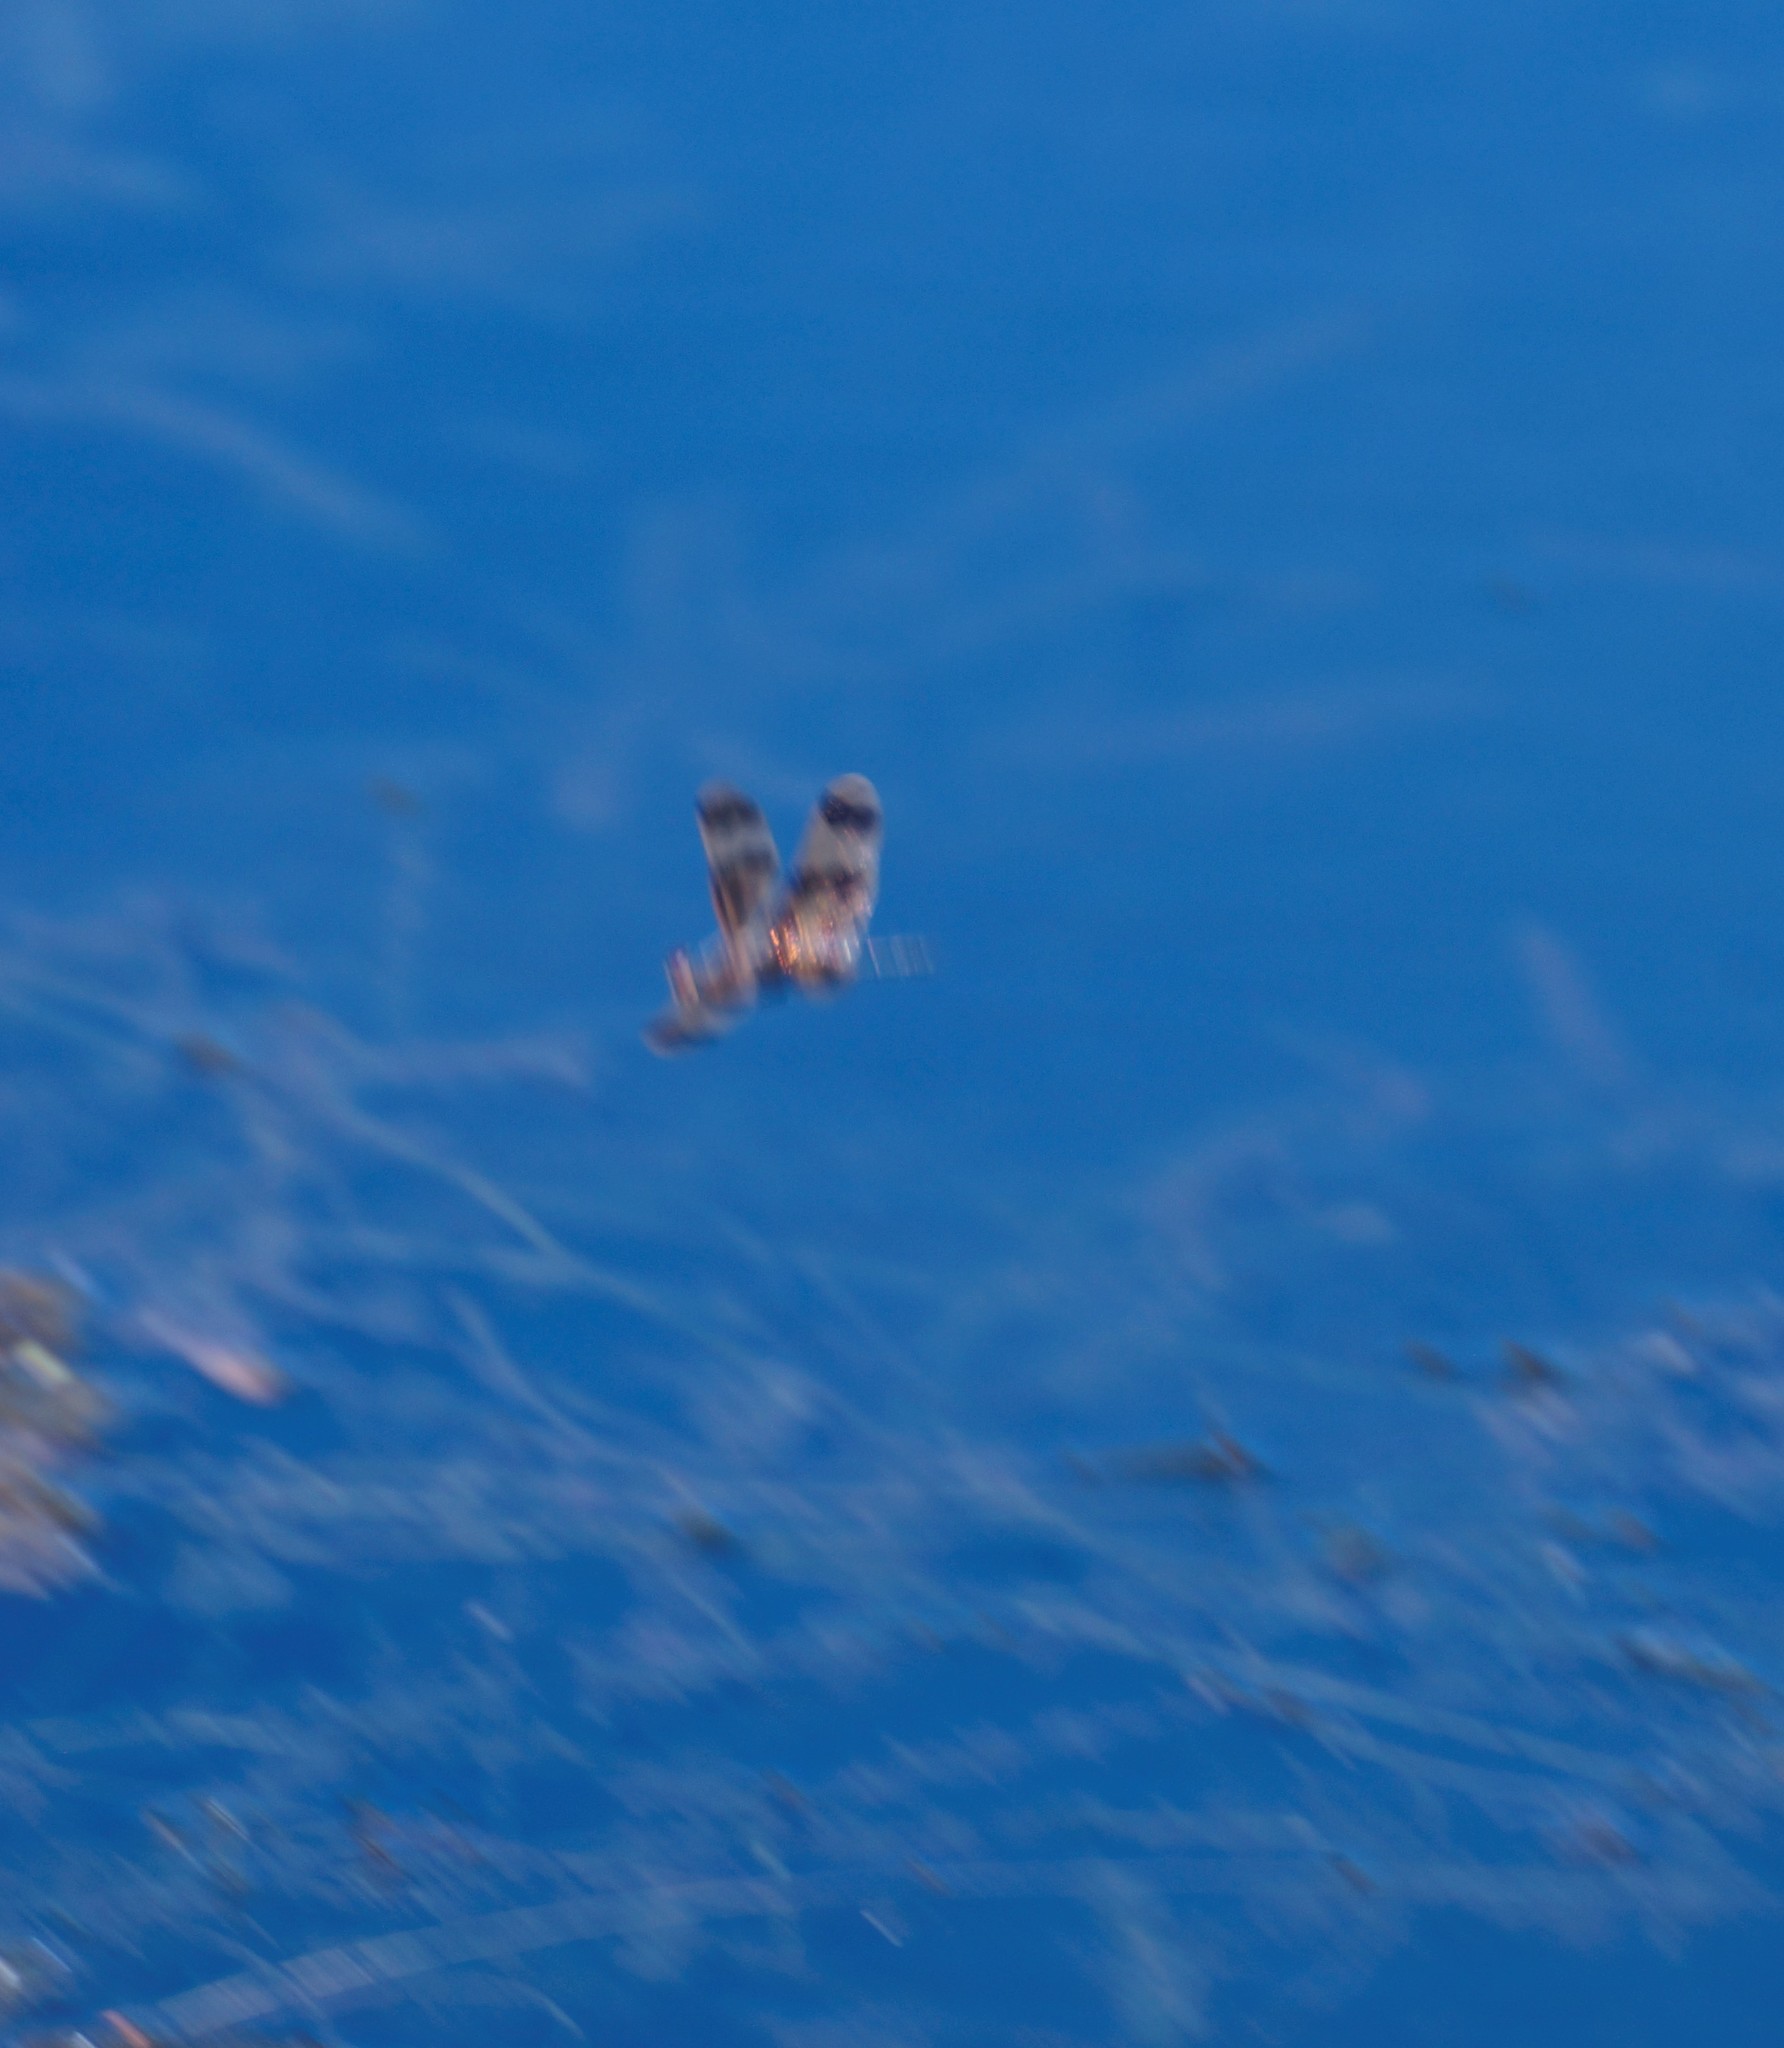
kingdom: Animalia
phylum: Arthropoda
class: Insecta
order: Odonata
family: Libellulidae
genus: Rhyothemis
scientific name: Rhyothemis graphiptera
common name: Graphic flutterer
